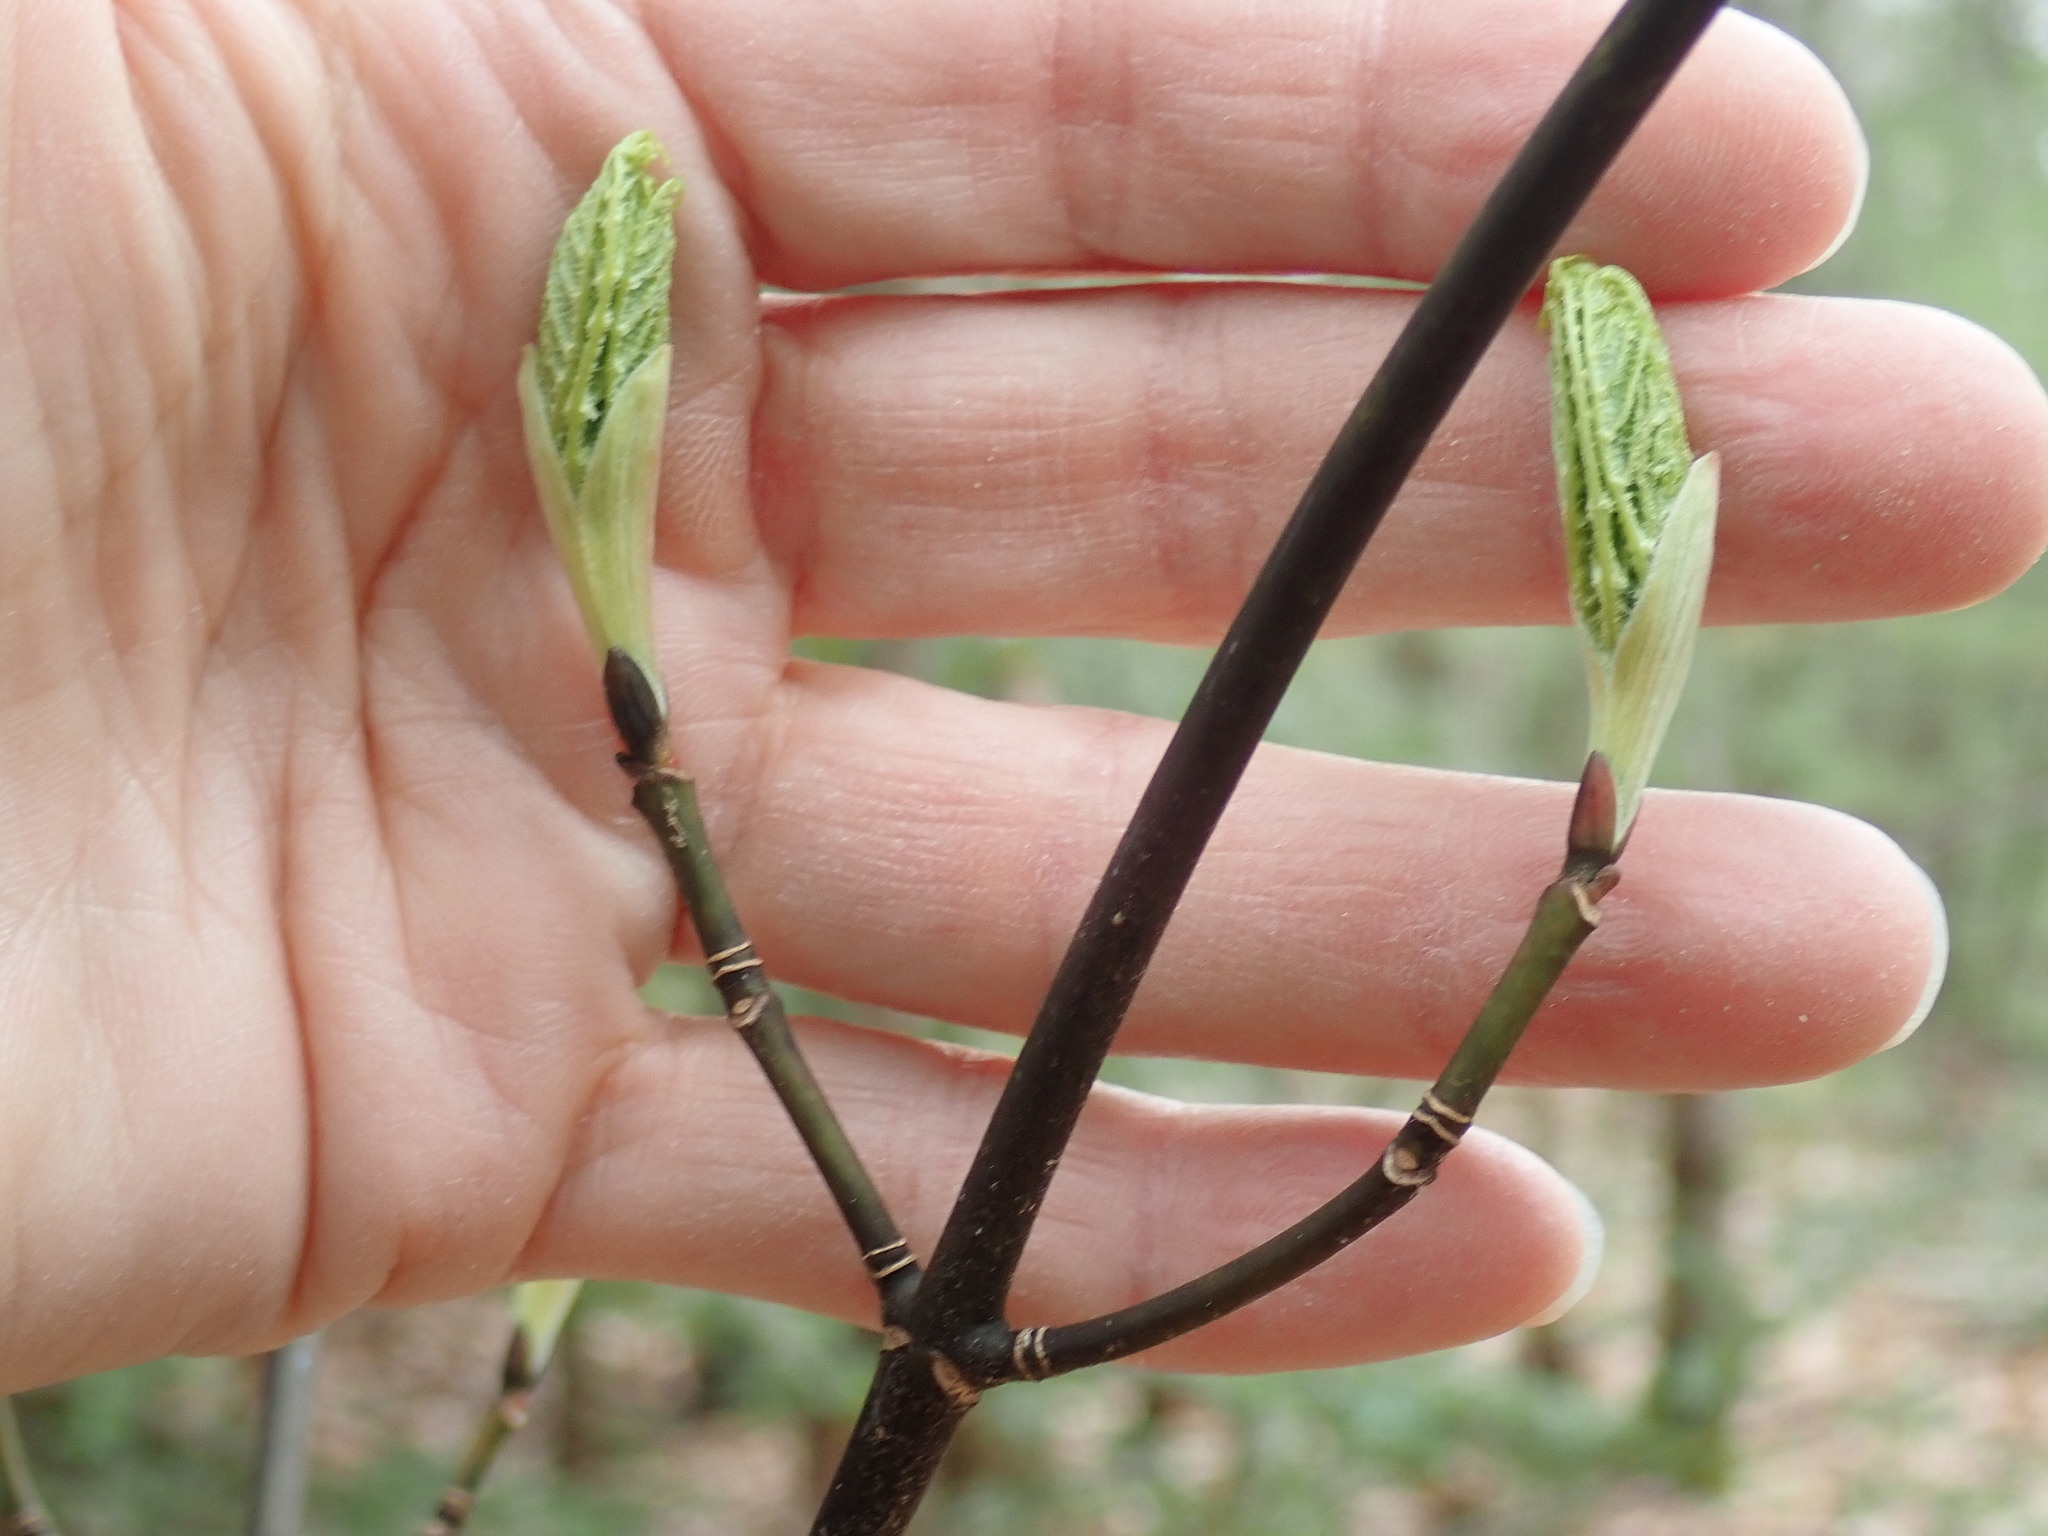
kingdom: Plantae
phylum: Tracheophyta
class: Magnoliopsida
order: Sapindales
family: Sapindaceae
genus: Acer
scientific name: Acer pensylvanicum
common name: Moosewood
